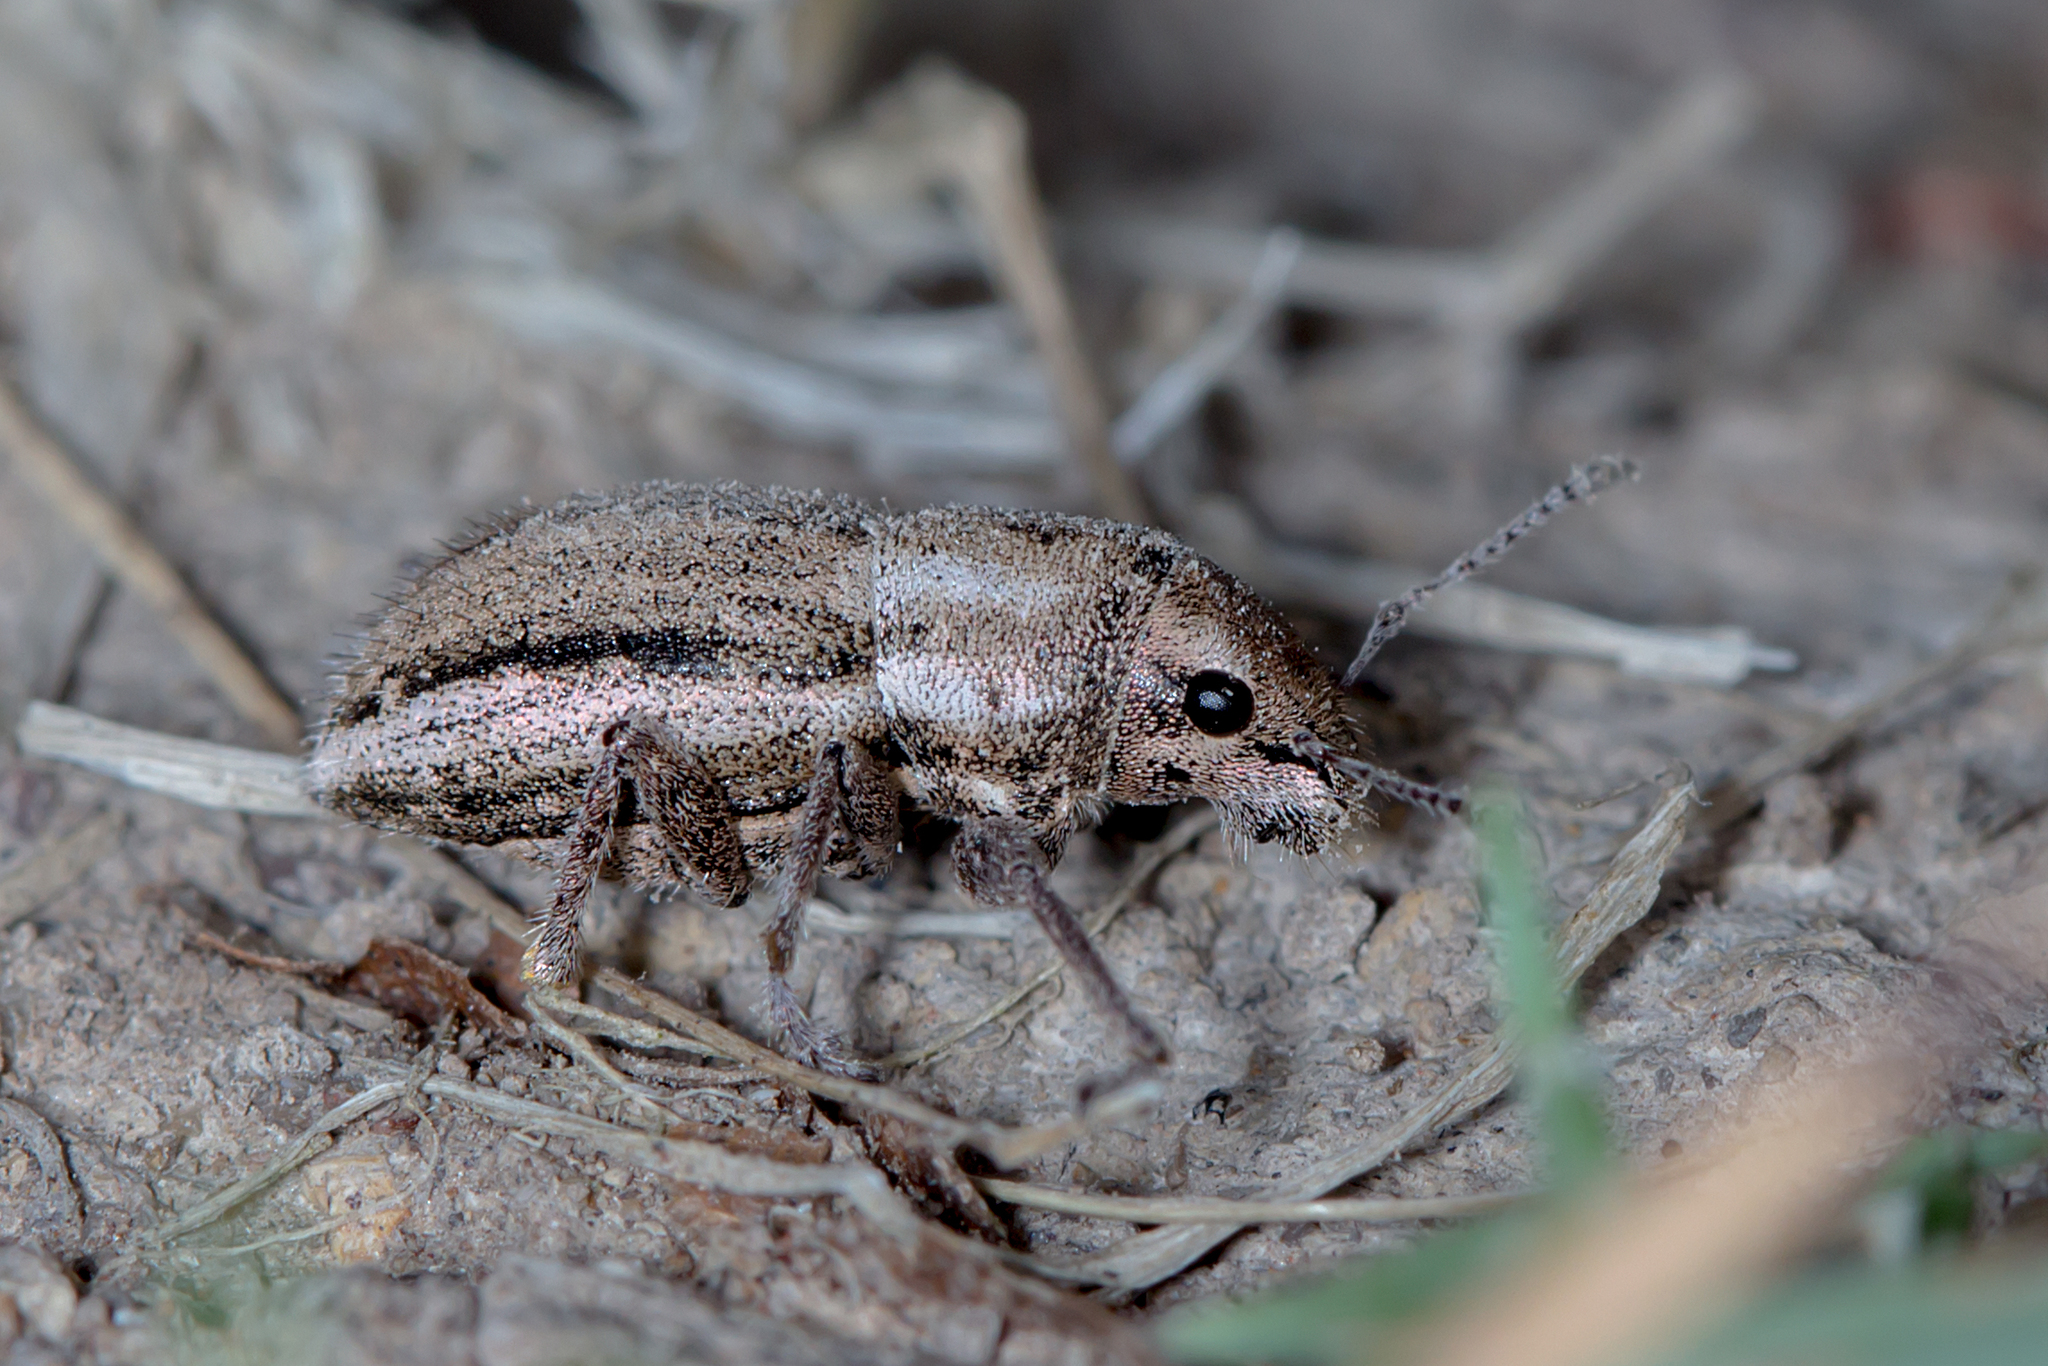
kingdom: Animalia
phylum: Arthropoda
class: Insecta
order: Coleoptera
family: Curculionidae
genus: Naupactus
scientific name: Naupactus peregrinus
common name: Whitefringed beetle
